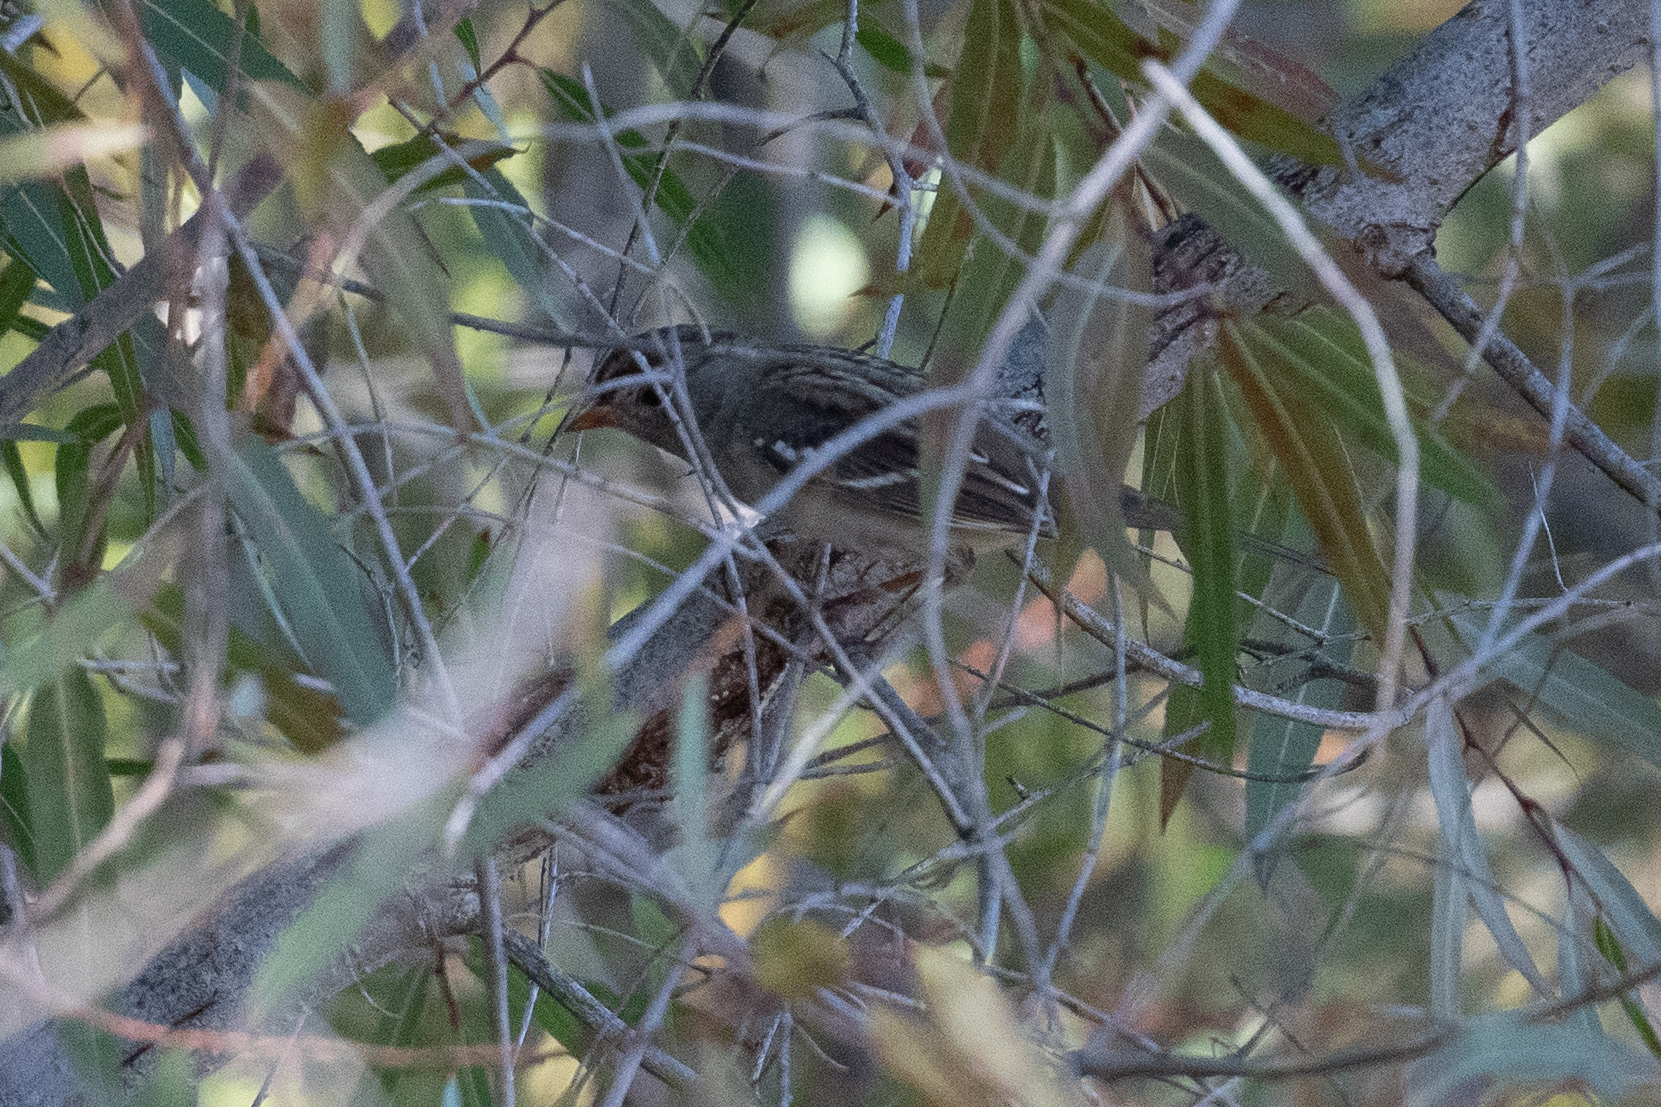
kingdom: Animalia
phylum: Chordata
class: Aves
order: Passeriformes
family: Passerellidae
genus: Zonotrichia
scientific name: Zonotrichia leucophrys
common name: White-crowned sparrow
